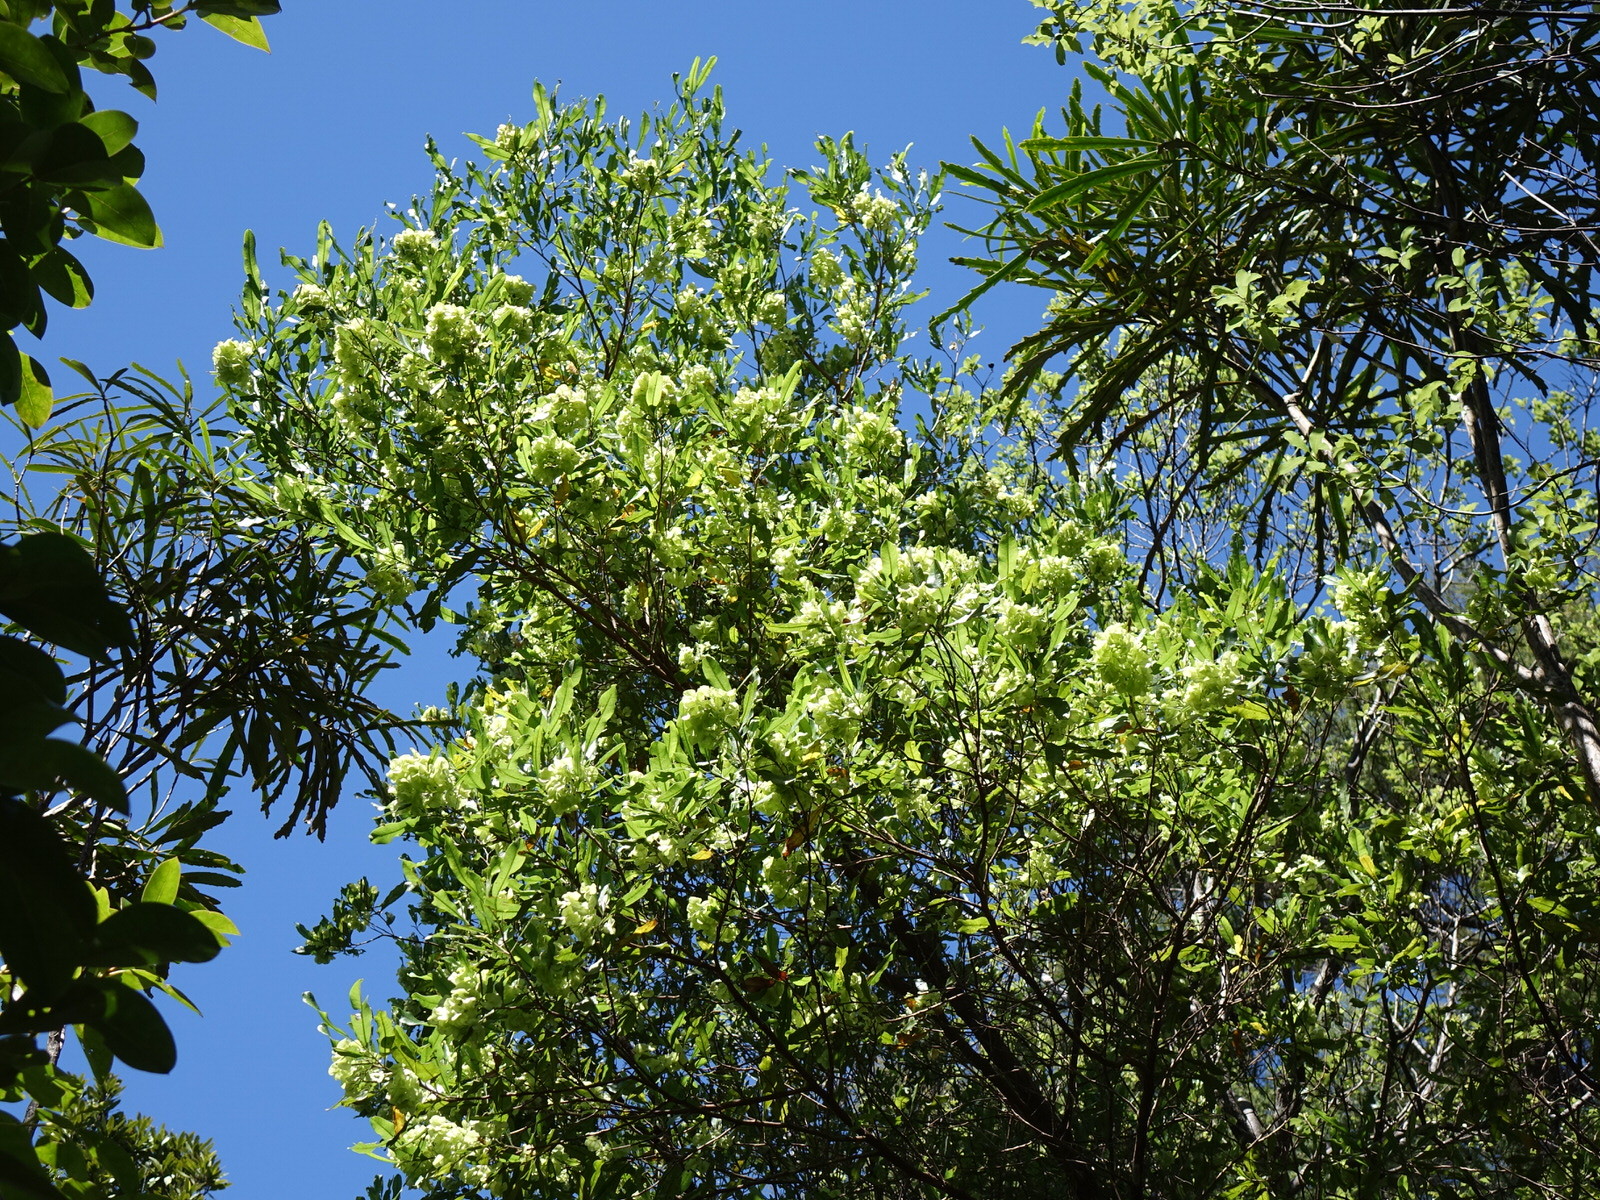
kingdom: Plantae
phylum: Tracheophyta
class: Magnoliopsida
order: Sapindales
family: Sapindaceae
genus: Dodonaea
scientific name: Dodonaea viscosa
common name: Hopbush
